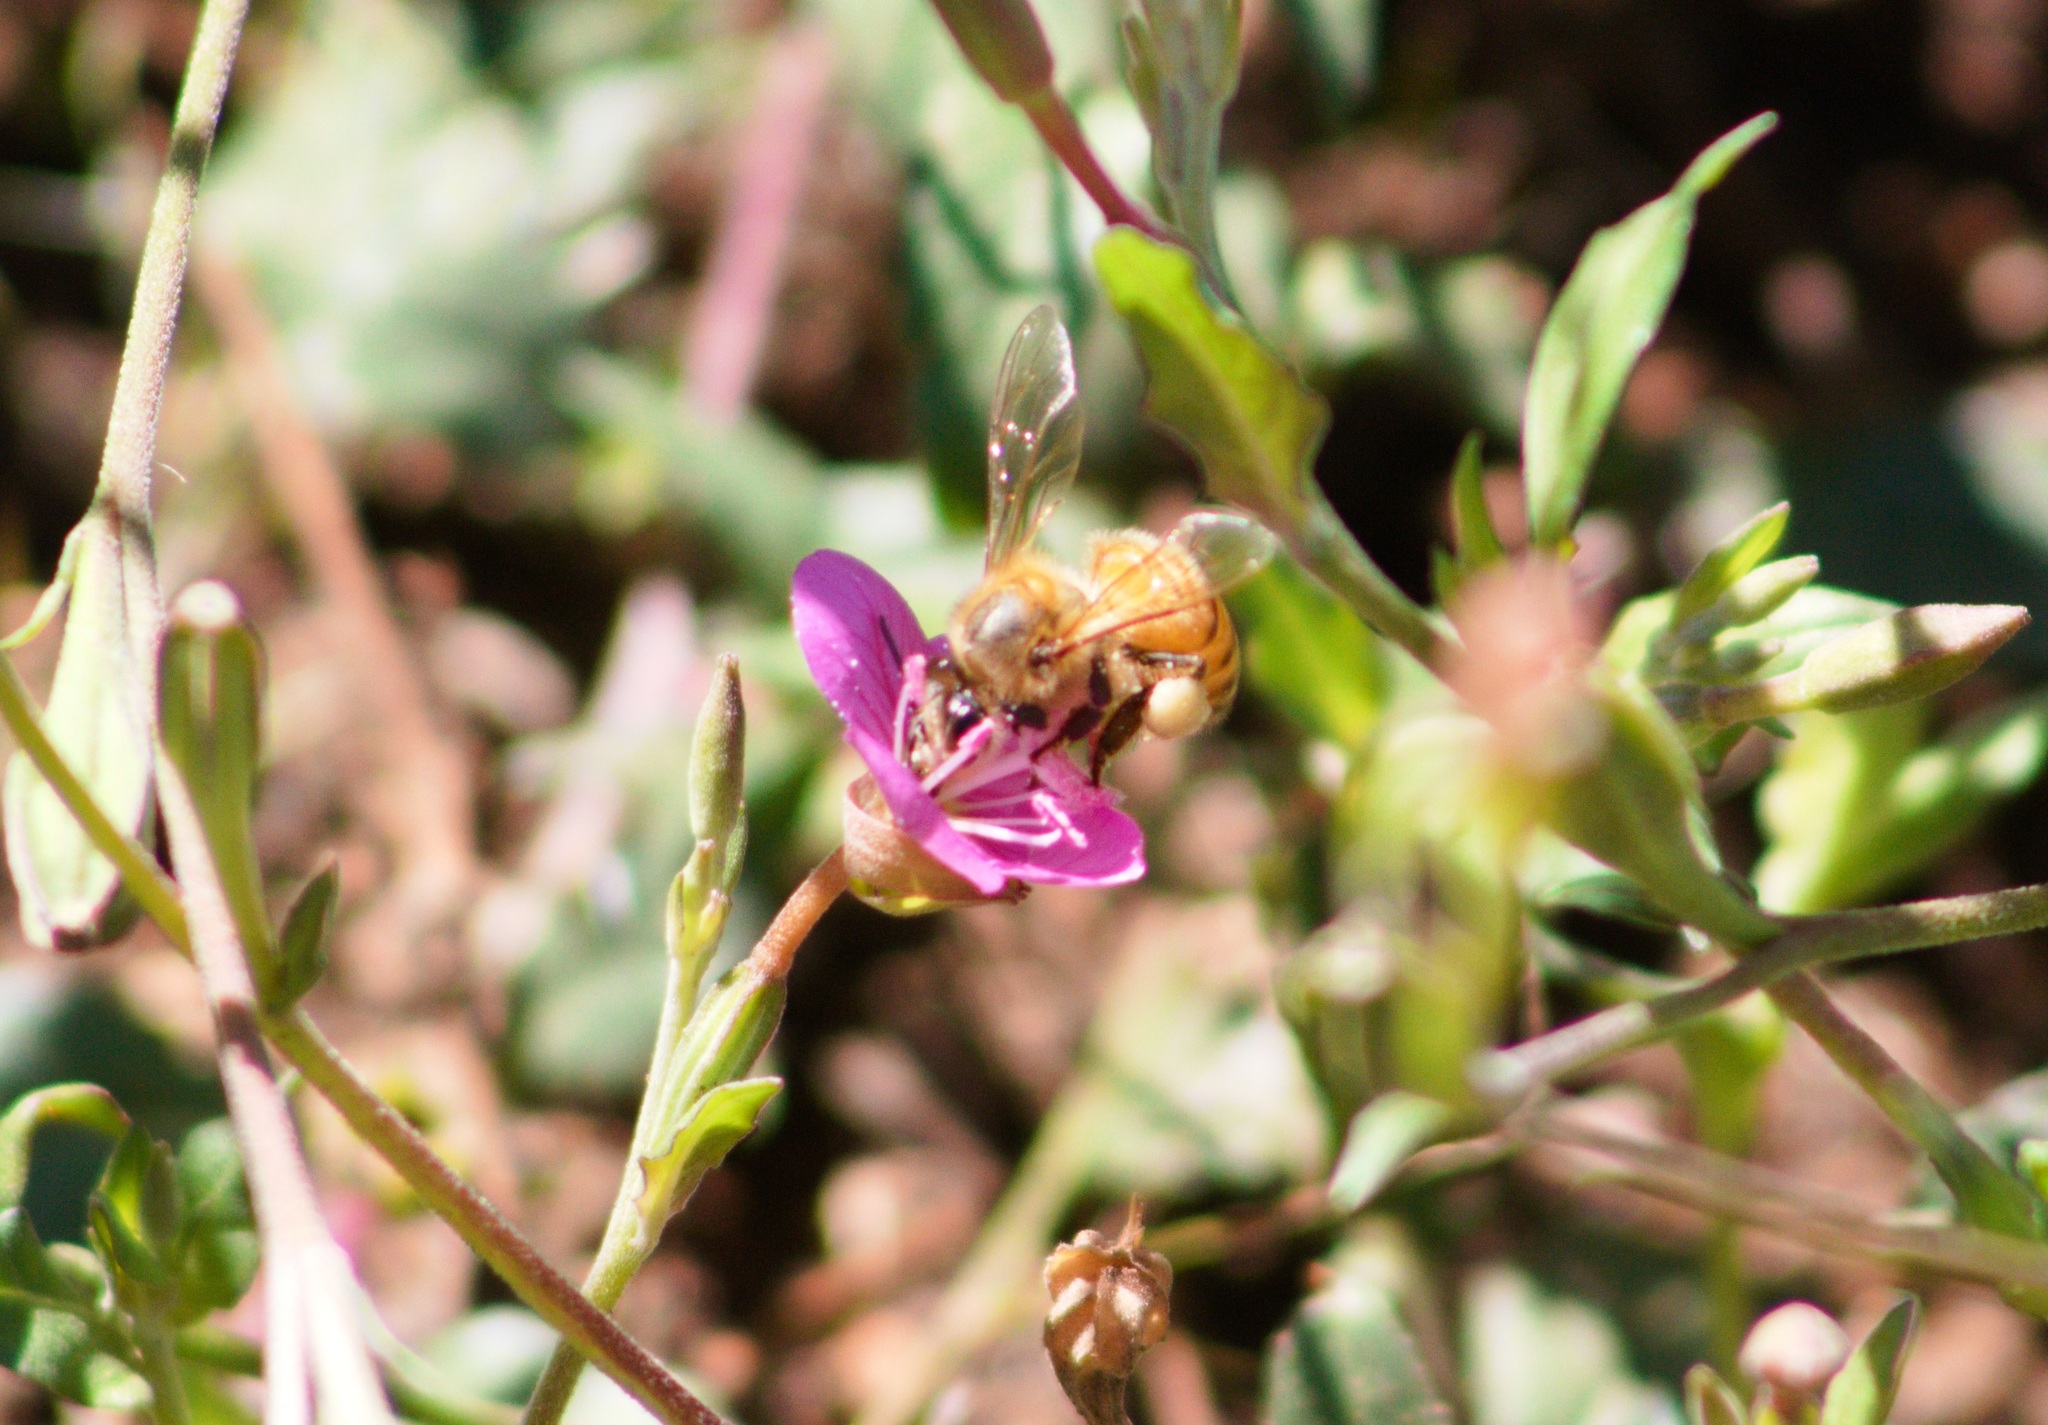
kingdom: Animalia
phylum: Arthropoda
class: Insecta
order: Hymenoptera
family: Apidae
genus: Apis
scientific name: Apis mellifera
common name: Honey bee
